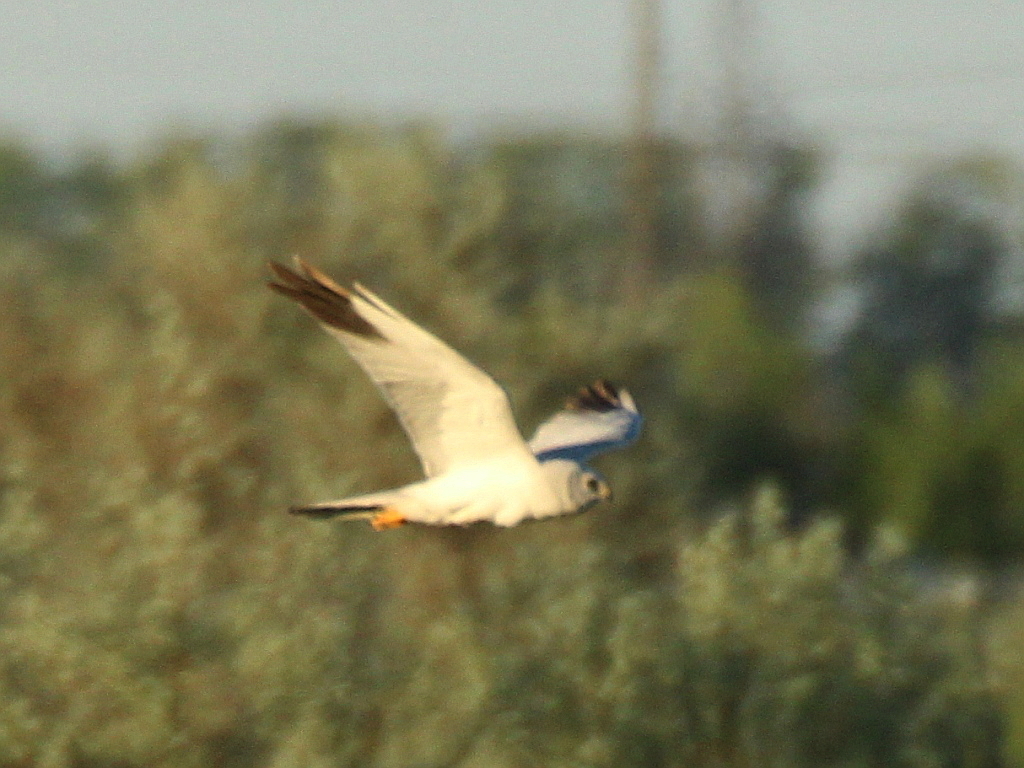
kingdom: Animalia
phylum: Chordata
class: Aves
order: Accipitriformes
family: Accipitridae
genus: Circus
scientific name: Circus macrourus
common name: Pallid harrier
